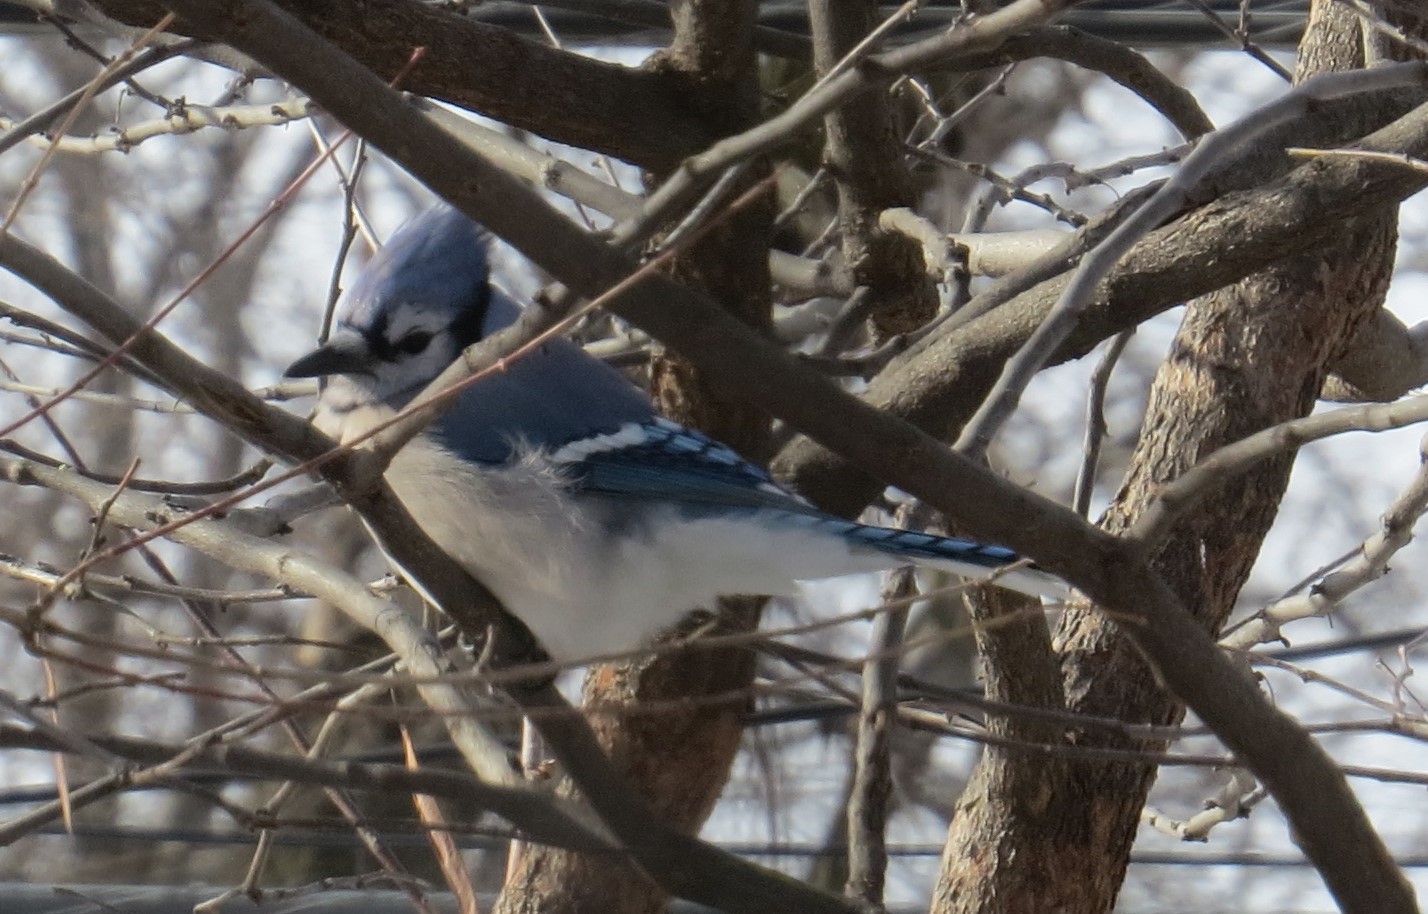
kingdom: Animalia
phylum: Chordata
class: Aves
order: Passeriformes
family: Corvidae
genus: Cyanocitta
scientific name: Cyanocitta cristata
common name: Blue jay
